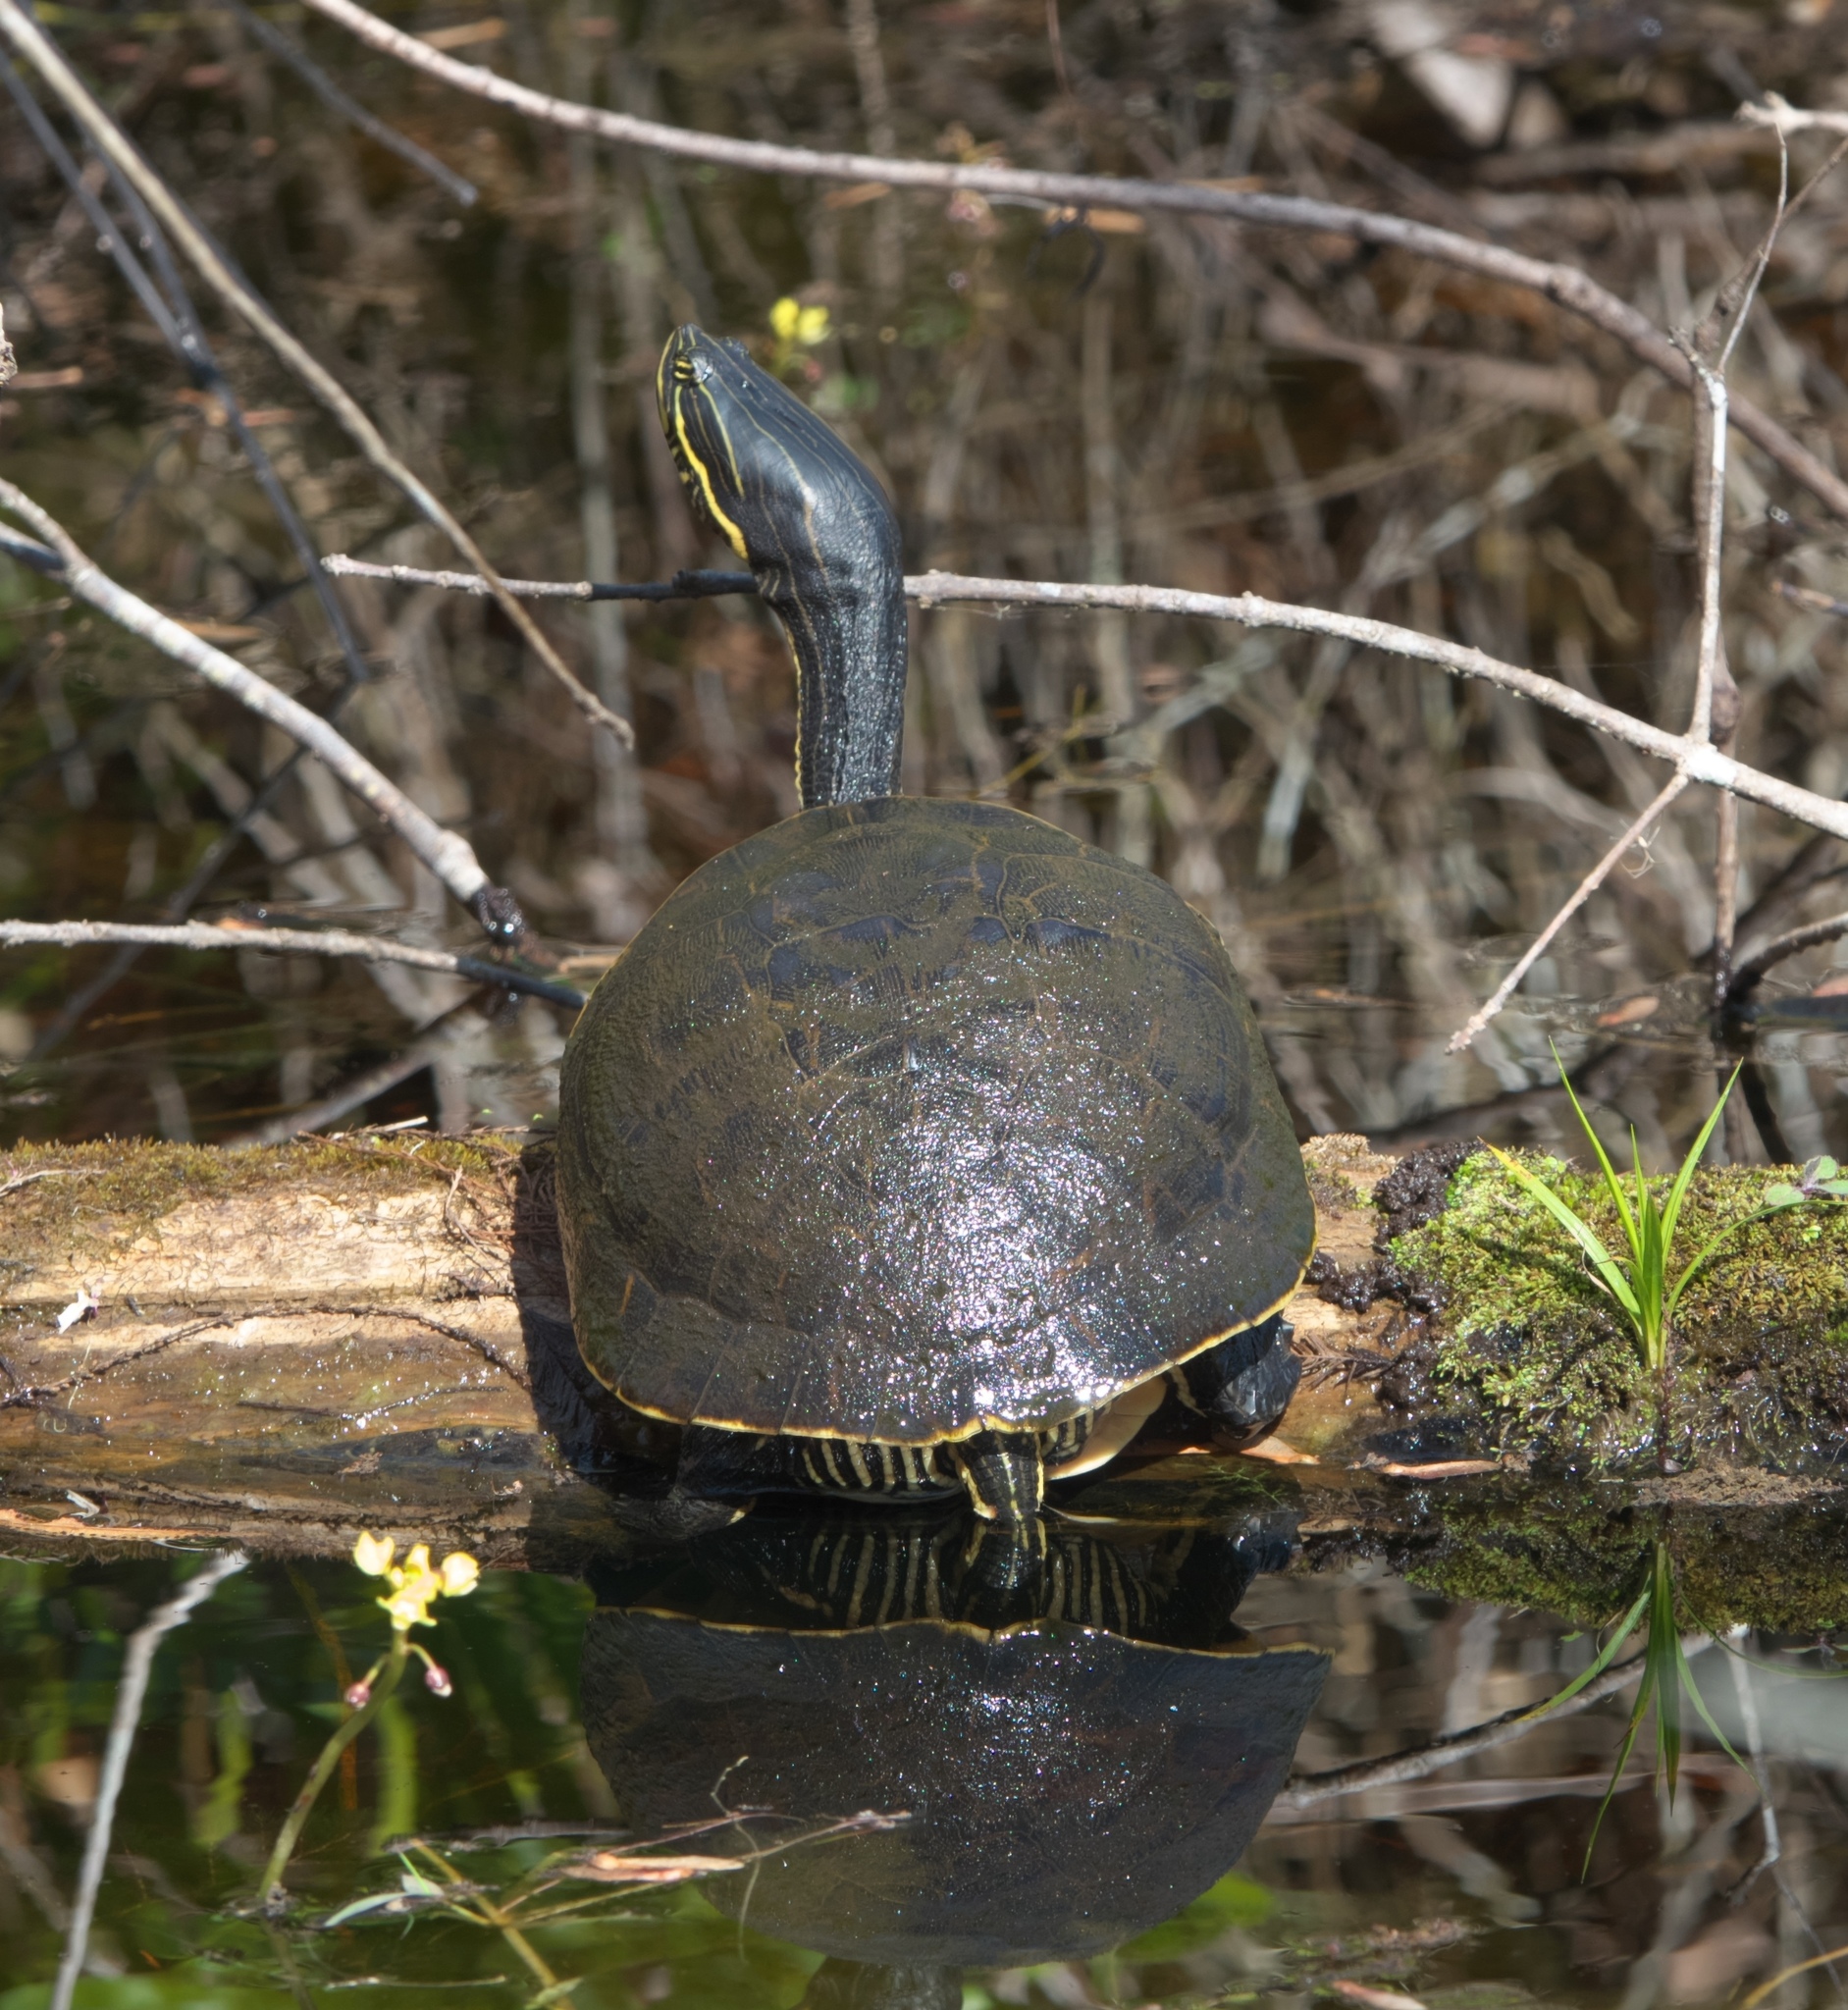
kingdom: Animalia
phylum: Chordata
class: Testudines
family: Emydidae
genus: Deirochelys
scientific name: Deirochelys reticularia
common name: Chicken turtle
